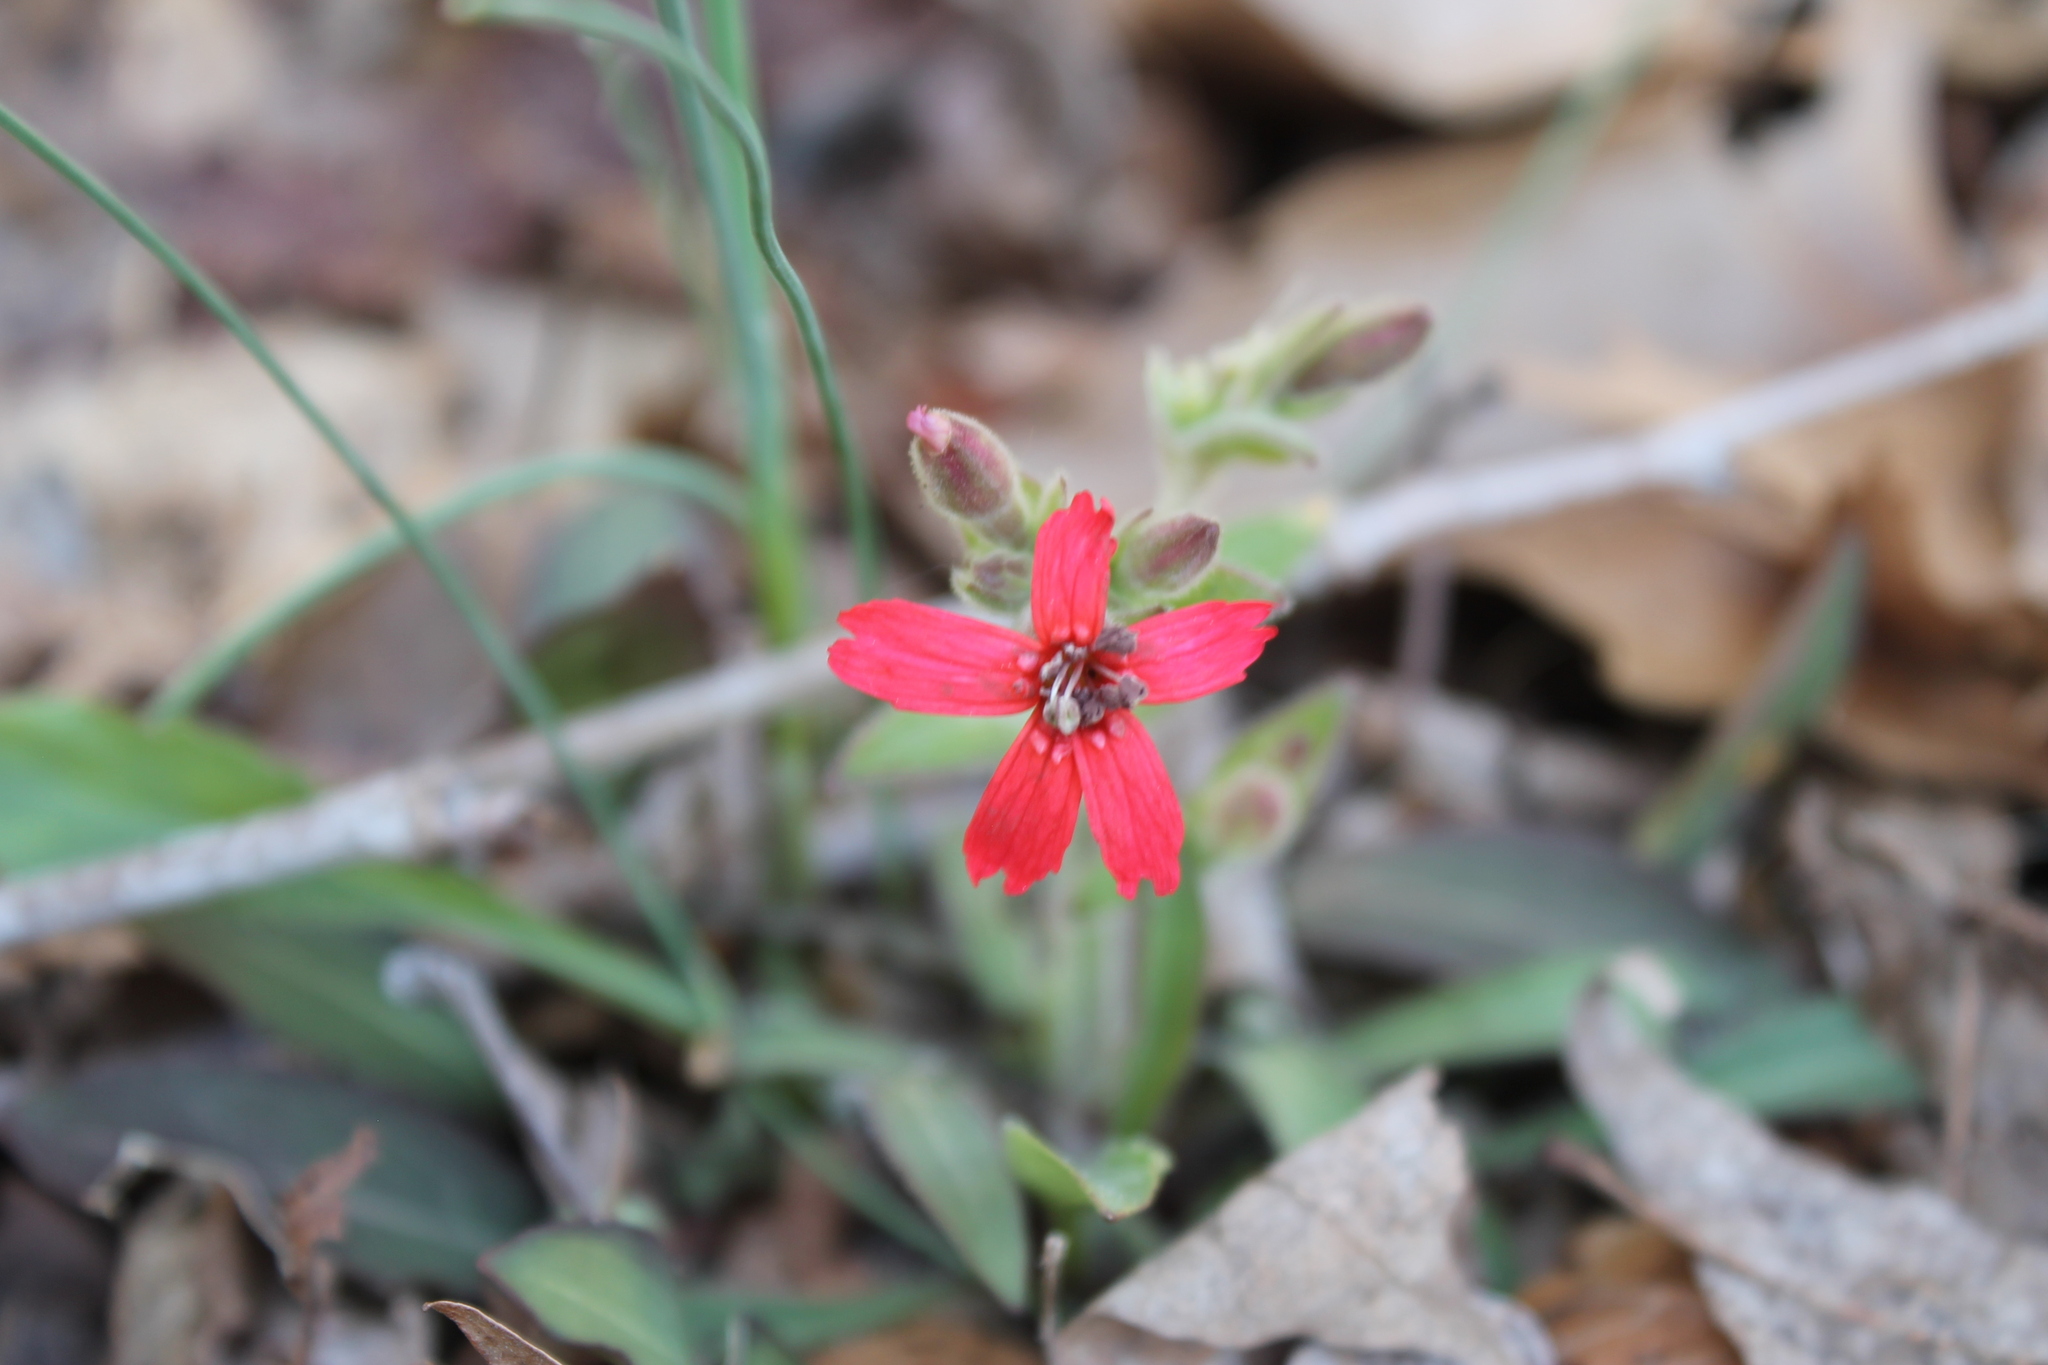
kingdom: Plantae
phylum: Tracheophyta
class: Magnoliopsida
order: Caryophyllales
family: Caryophyllaceae
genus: Silene
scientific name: Silene virginica
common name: Fire-pink
